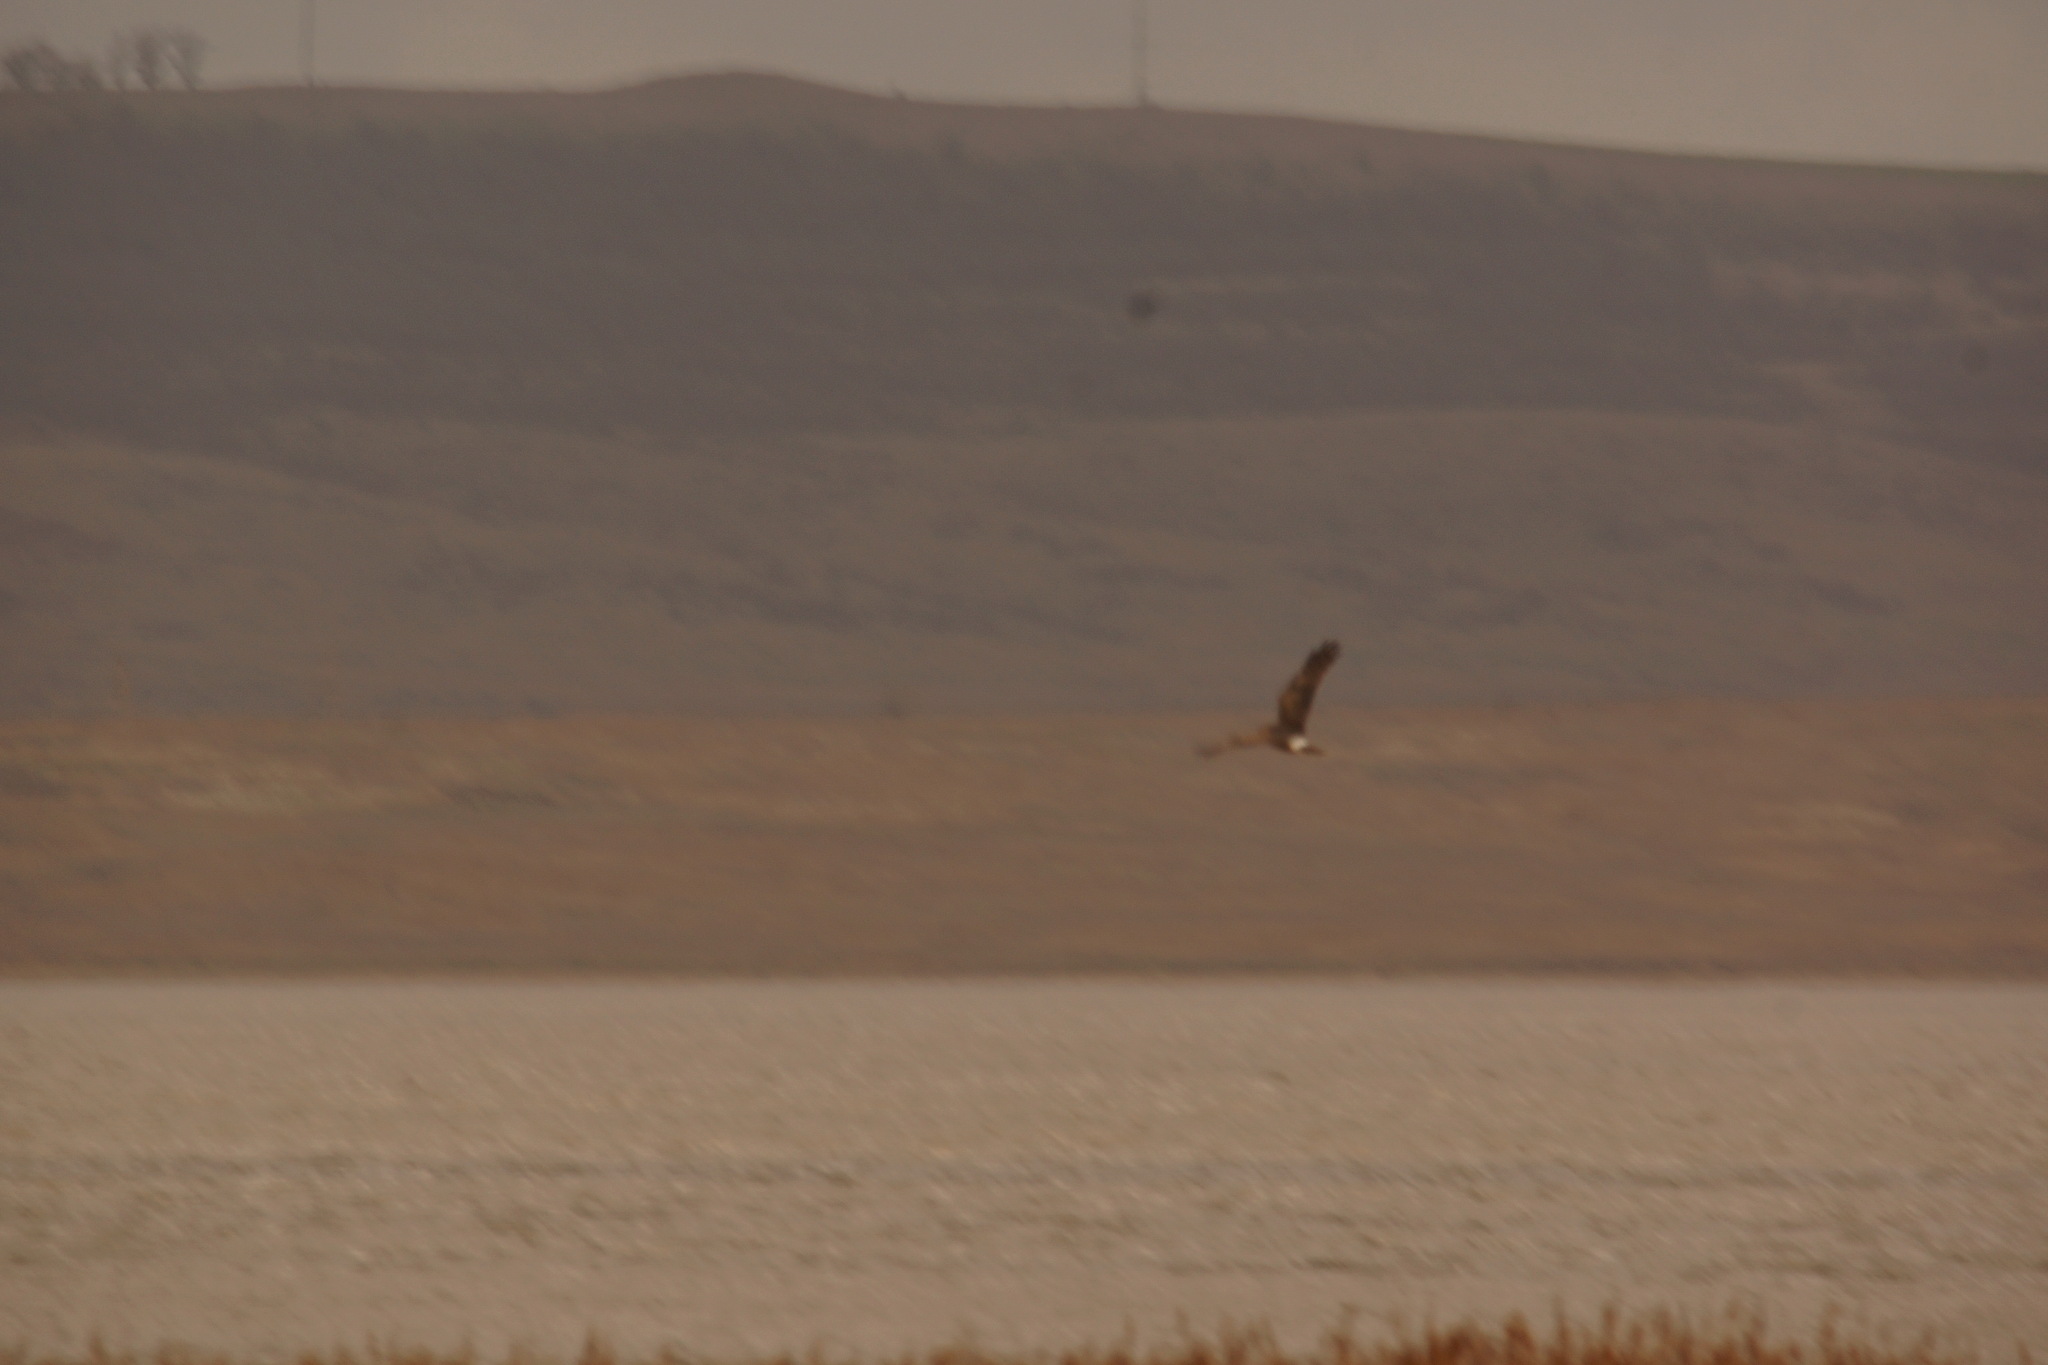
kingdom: Animalia
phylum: Chordata
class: Aves
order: Accipitriformes
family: Accipitridae
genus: Circus
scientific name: Circus cyaneus
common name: Hen harrier
